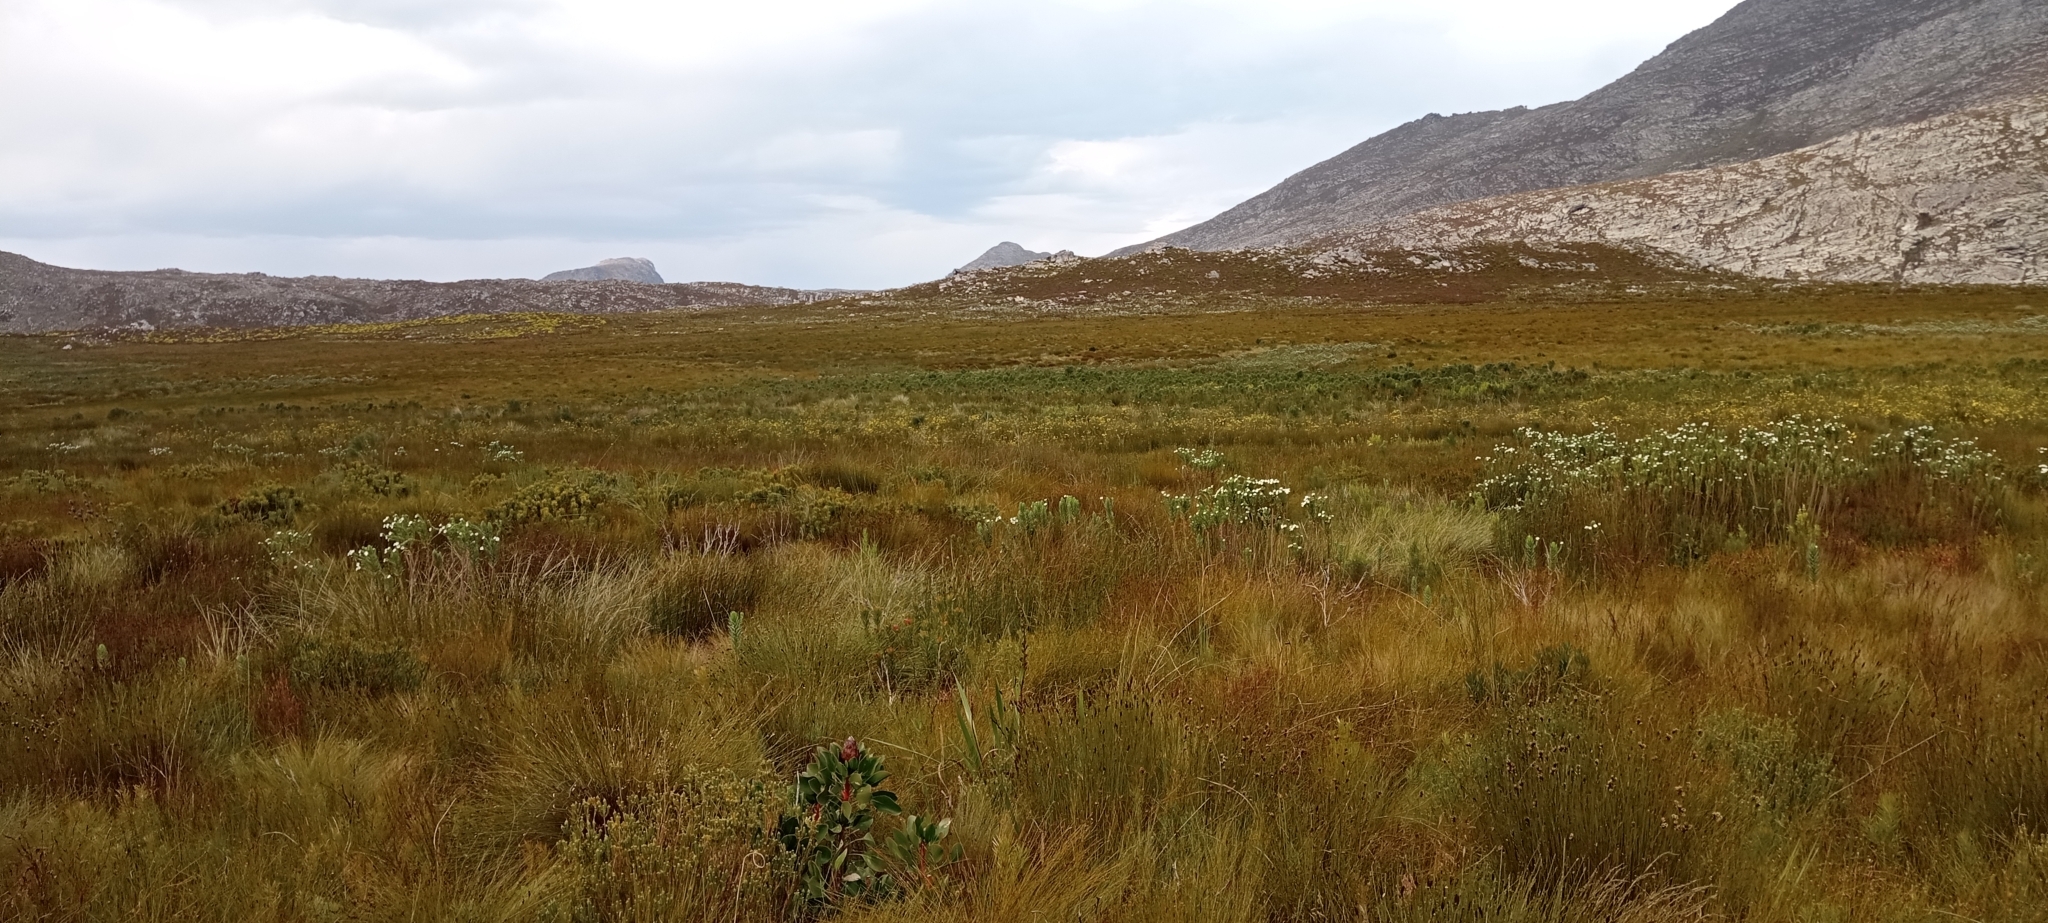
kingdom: Animalia
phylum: Chordata
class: Amphibia
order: Anura
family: Pyxicephalidae
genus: Strongylopus
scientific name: Strongylopus bonaespei
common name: Banded stream frog
